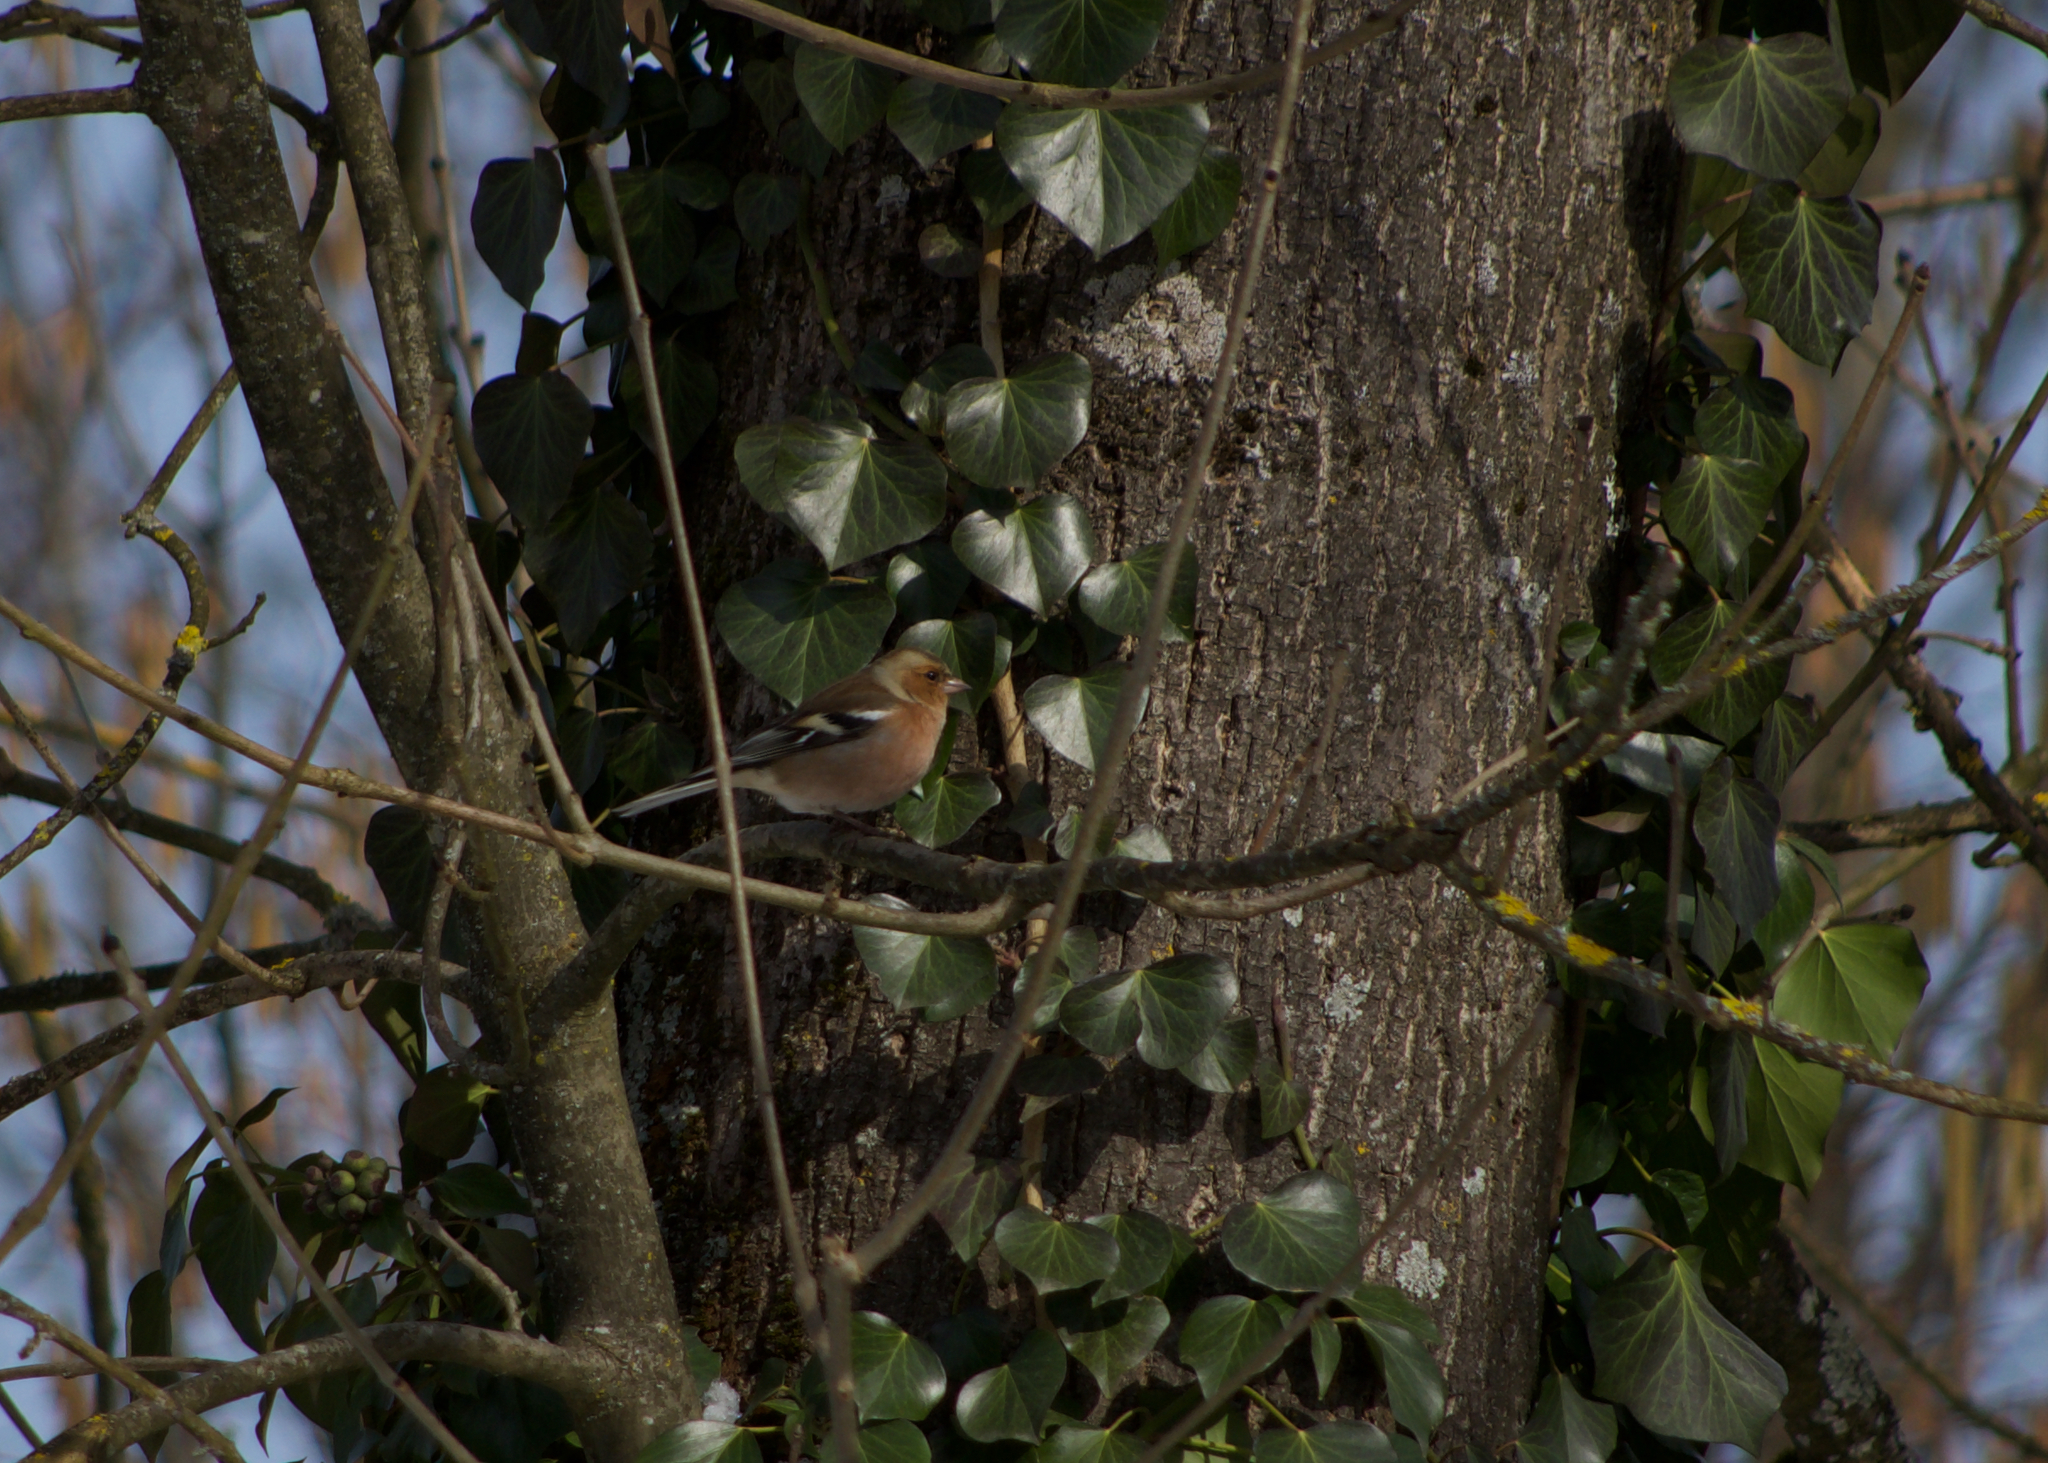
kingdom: Animalia
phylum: Chordata
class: Aves
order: Passeriformes
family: Fringillidae
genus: Fringilla
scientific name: Fringilla coelebs
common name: Common chaffinch
